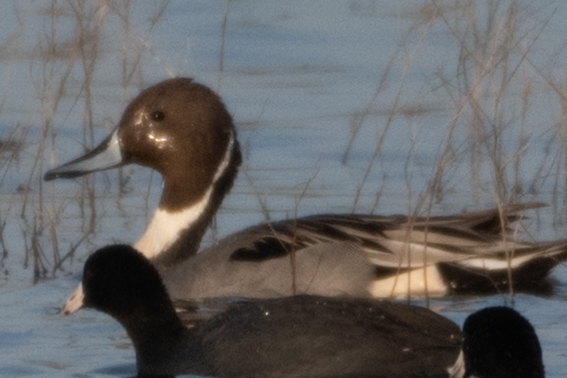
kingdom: Animalia
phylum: Chordata
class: Aves
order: Anseriformes
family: Anatidae
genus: Anas
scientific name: Anas acuta
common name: Northern pintail
